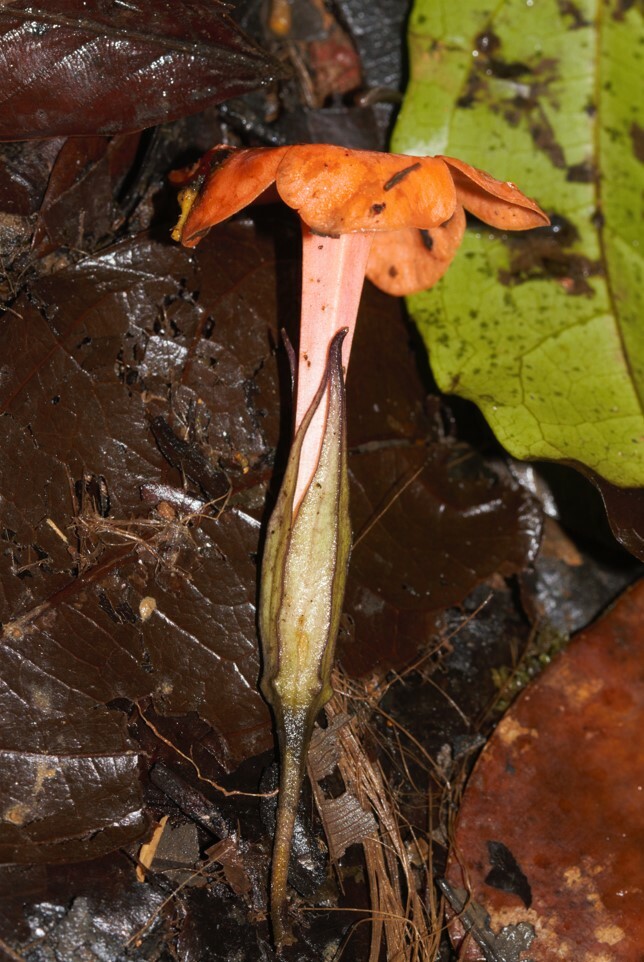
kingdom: Plantae
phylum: Tracheophyta
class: Magnoliopsida
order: Solanales
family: Solanaceae
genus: Markea
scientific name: Markea coccinea
